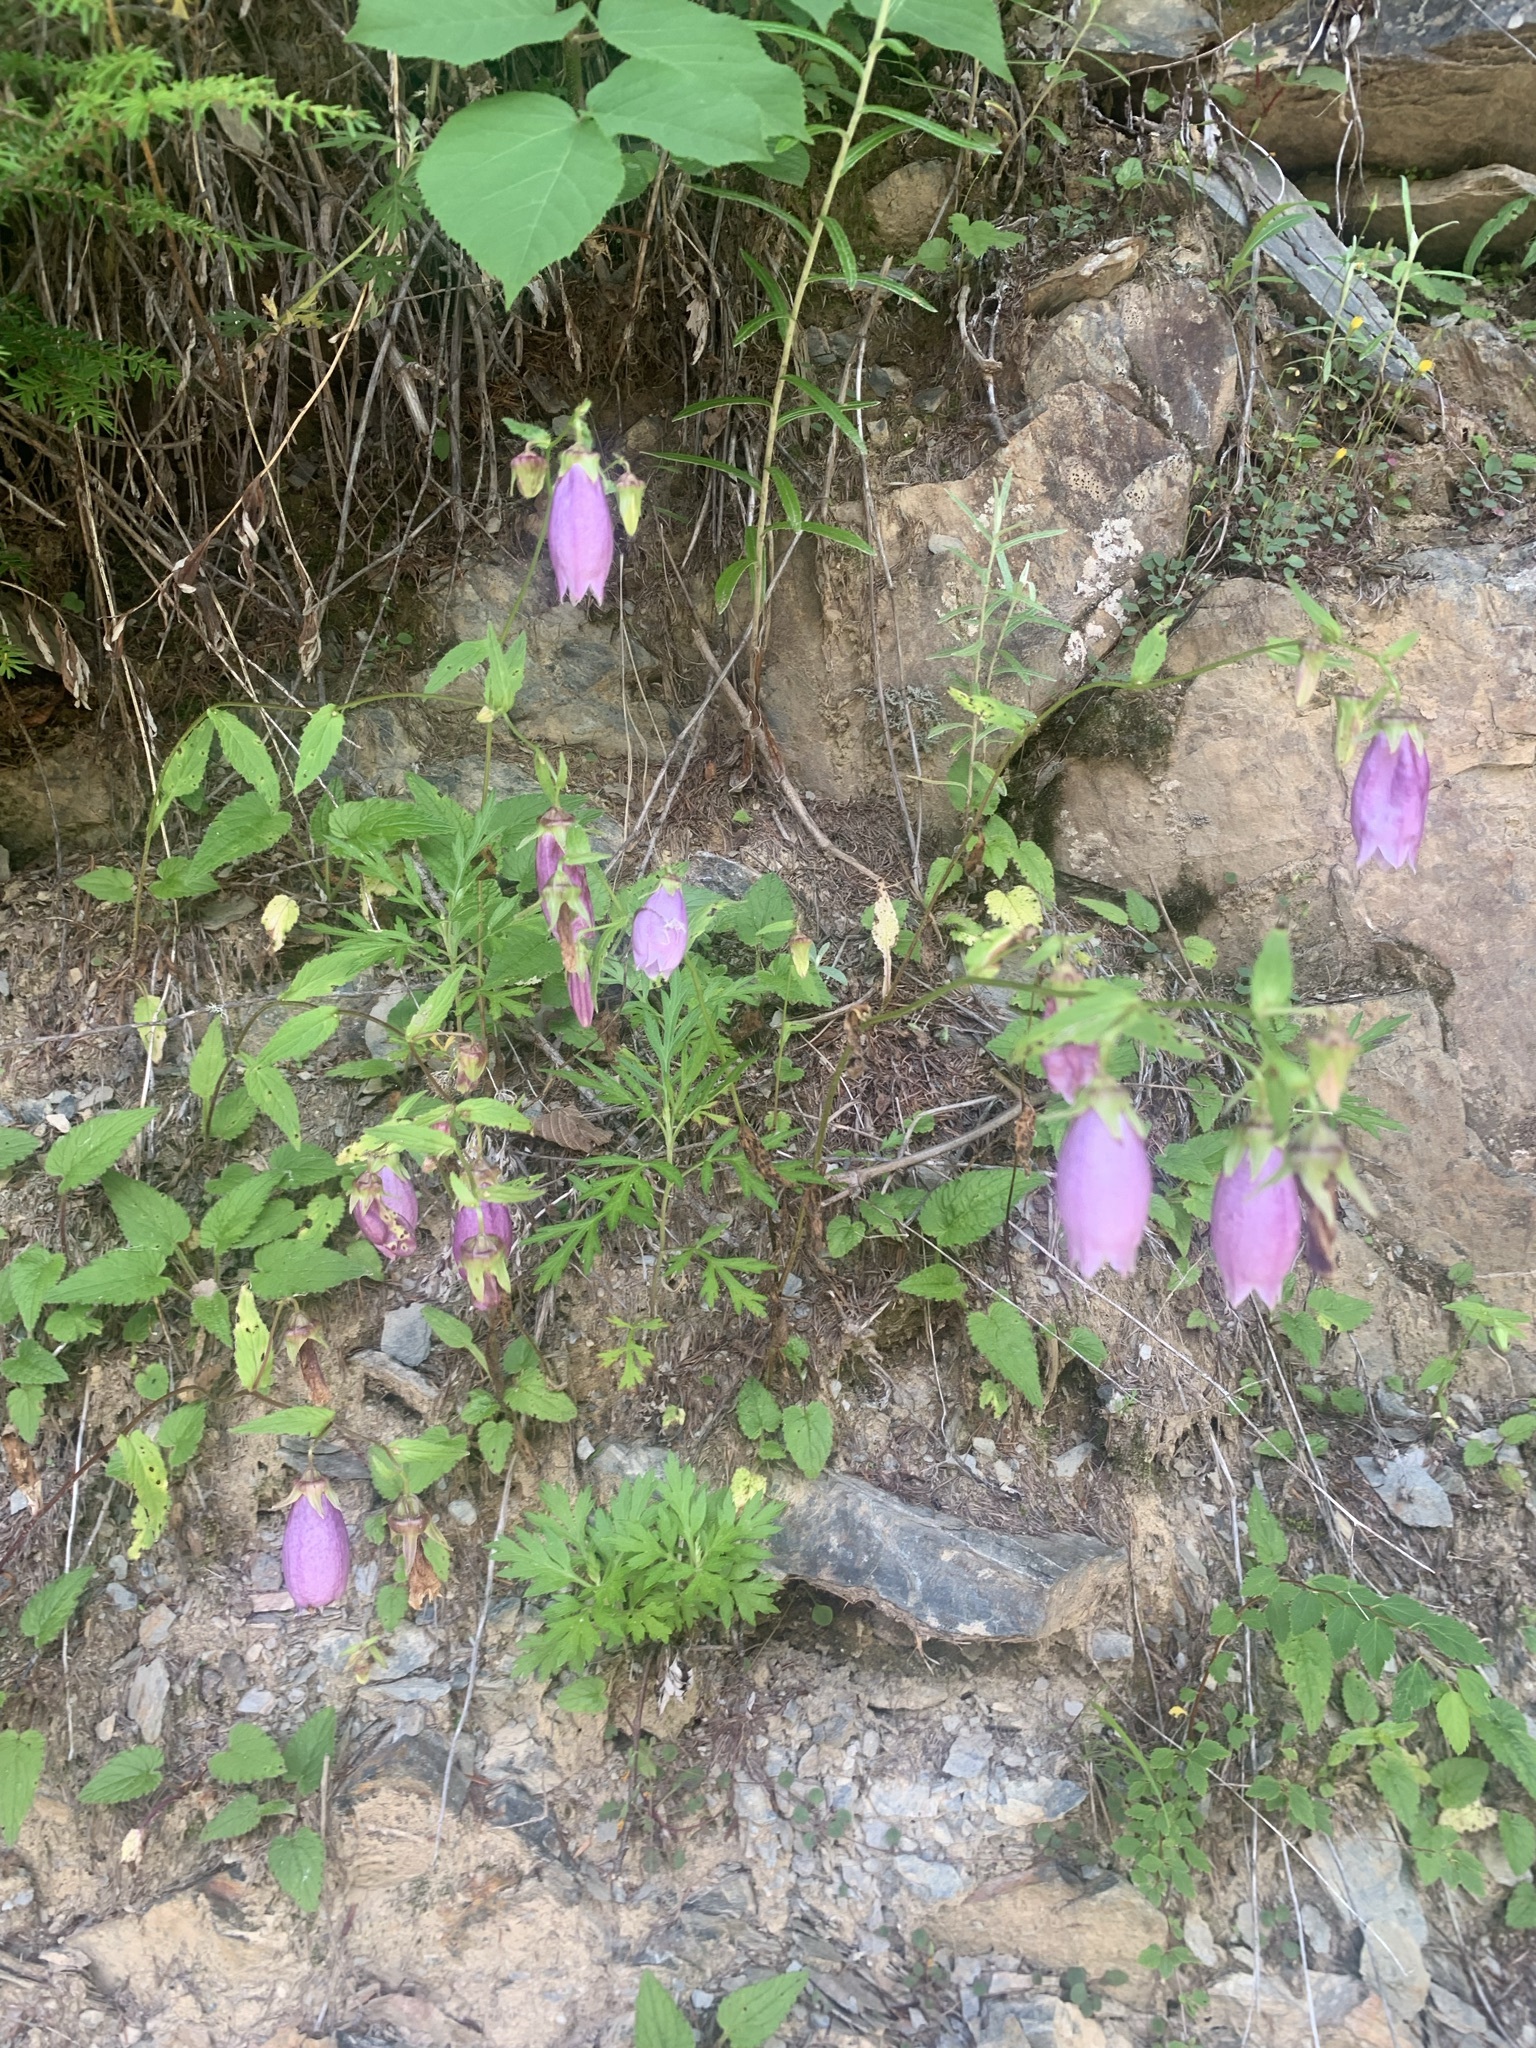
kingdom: Plantae
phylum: Tracheophyta
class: Magnoliopsida
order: Asterales
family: Campanulaceae
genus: Campanula
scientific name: Campanula punctata
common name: Spotted bellflower
